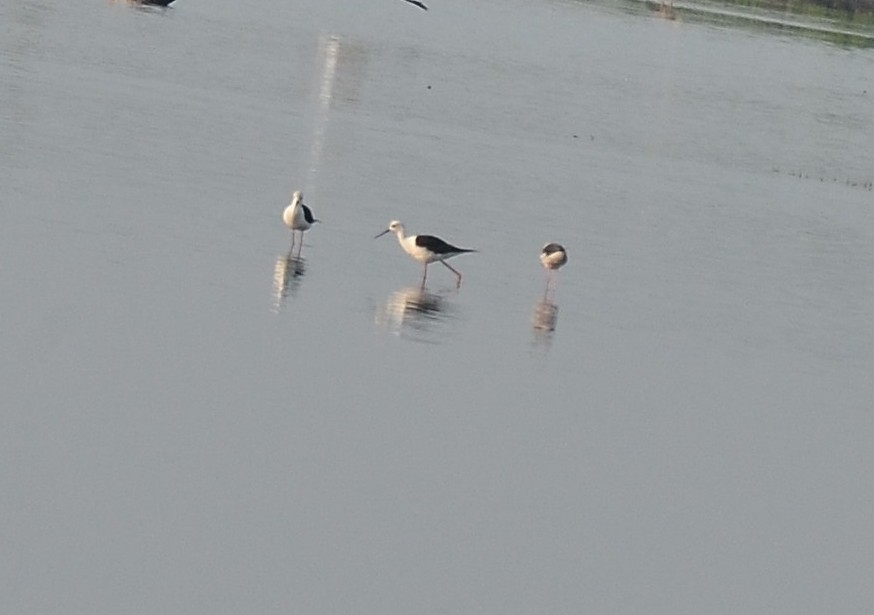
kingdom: Animalia
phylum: Chordata
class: Aves
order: Charadriiformes
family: Recurvirostridae
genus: Himantopus
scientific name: Himantopus himantopus
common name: Black-winged stilt
